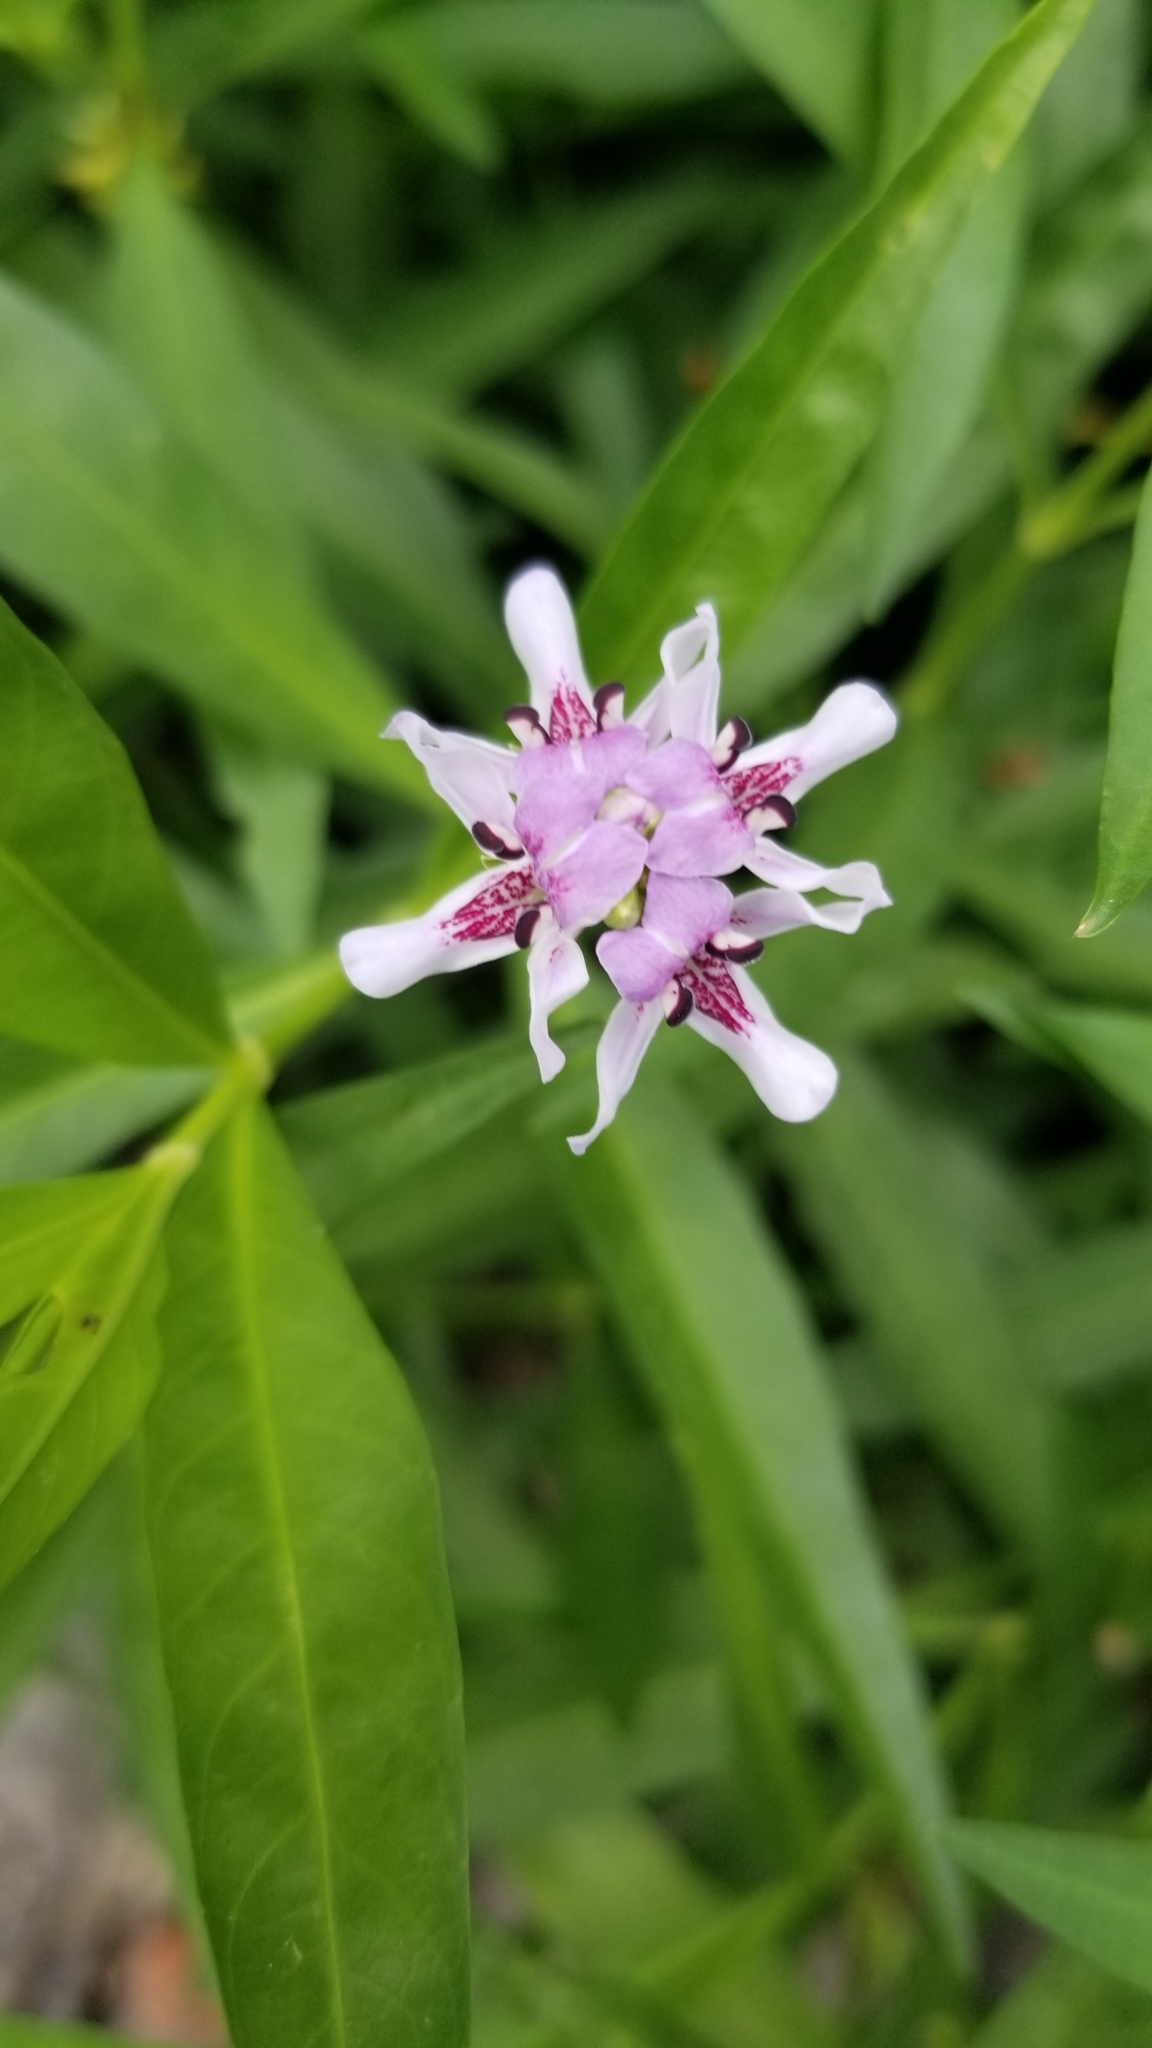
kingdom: Plantae
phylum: Tracheophyta
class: Magnoliopsida
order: Lamiales
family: Acanthaceae
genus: Dianthera
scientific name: Dianthera americana
